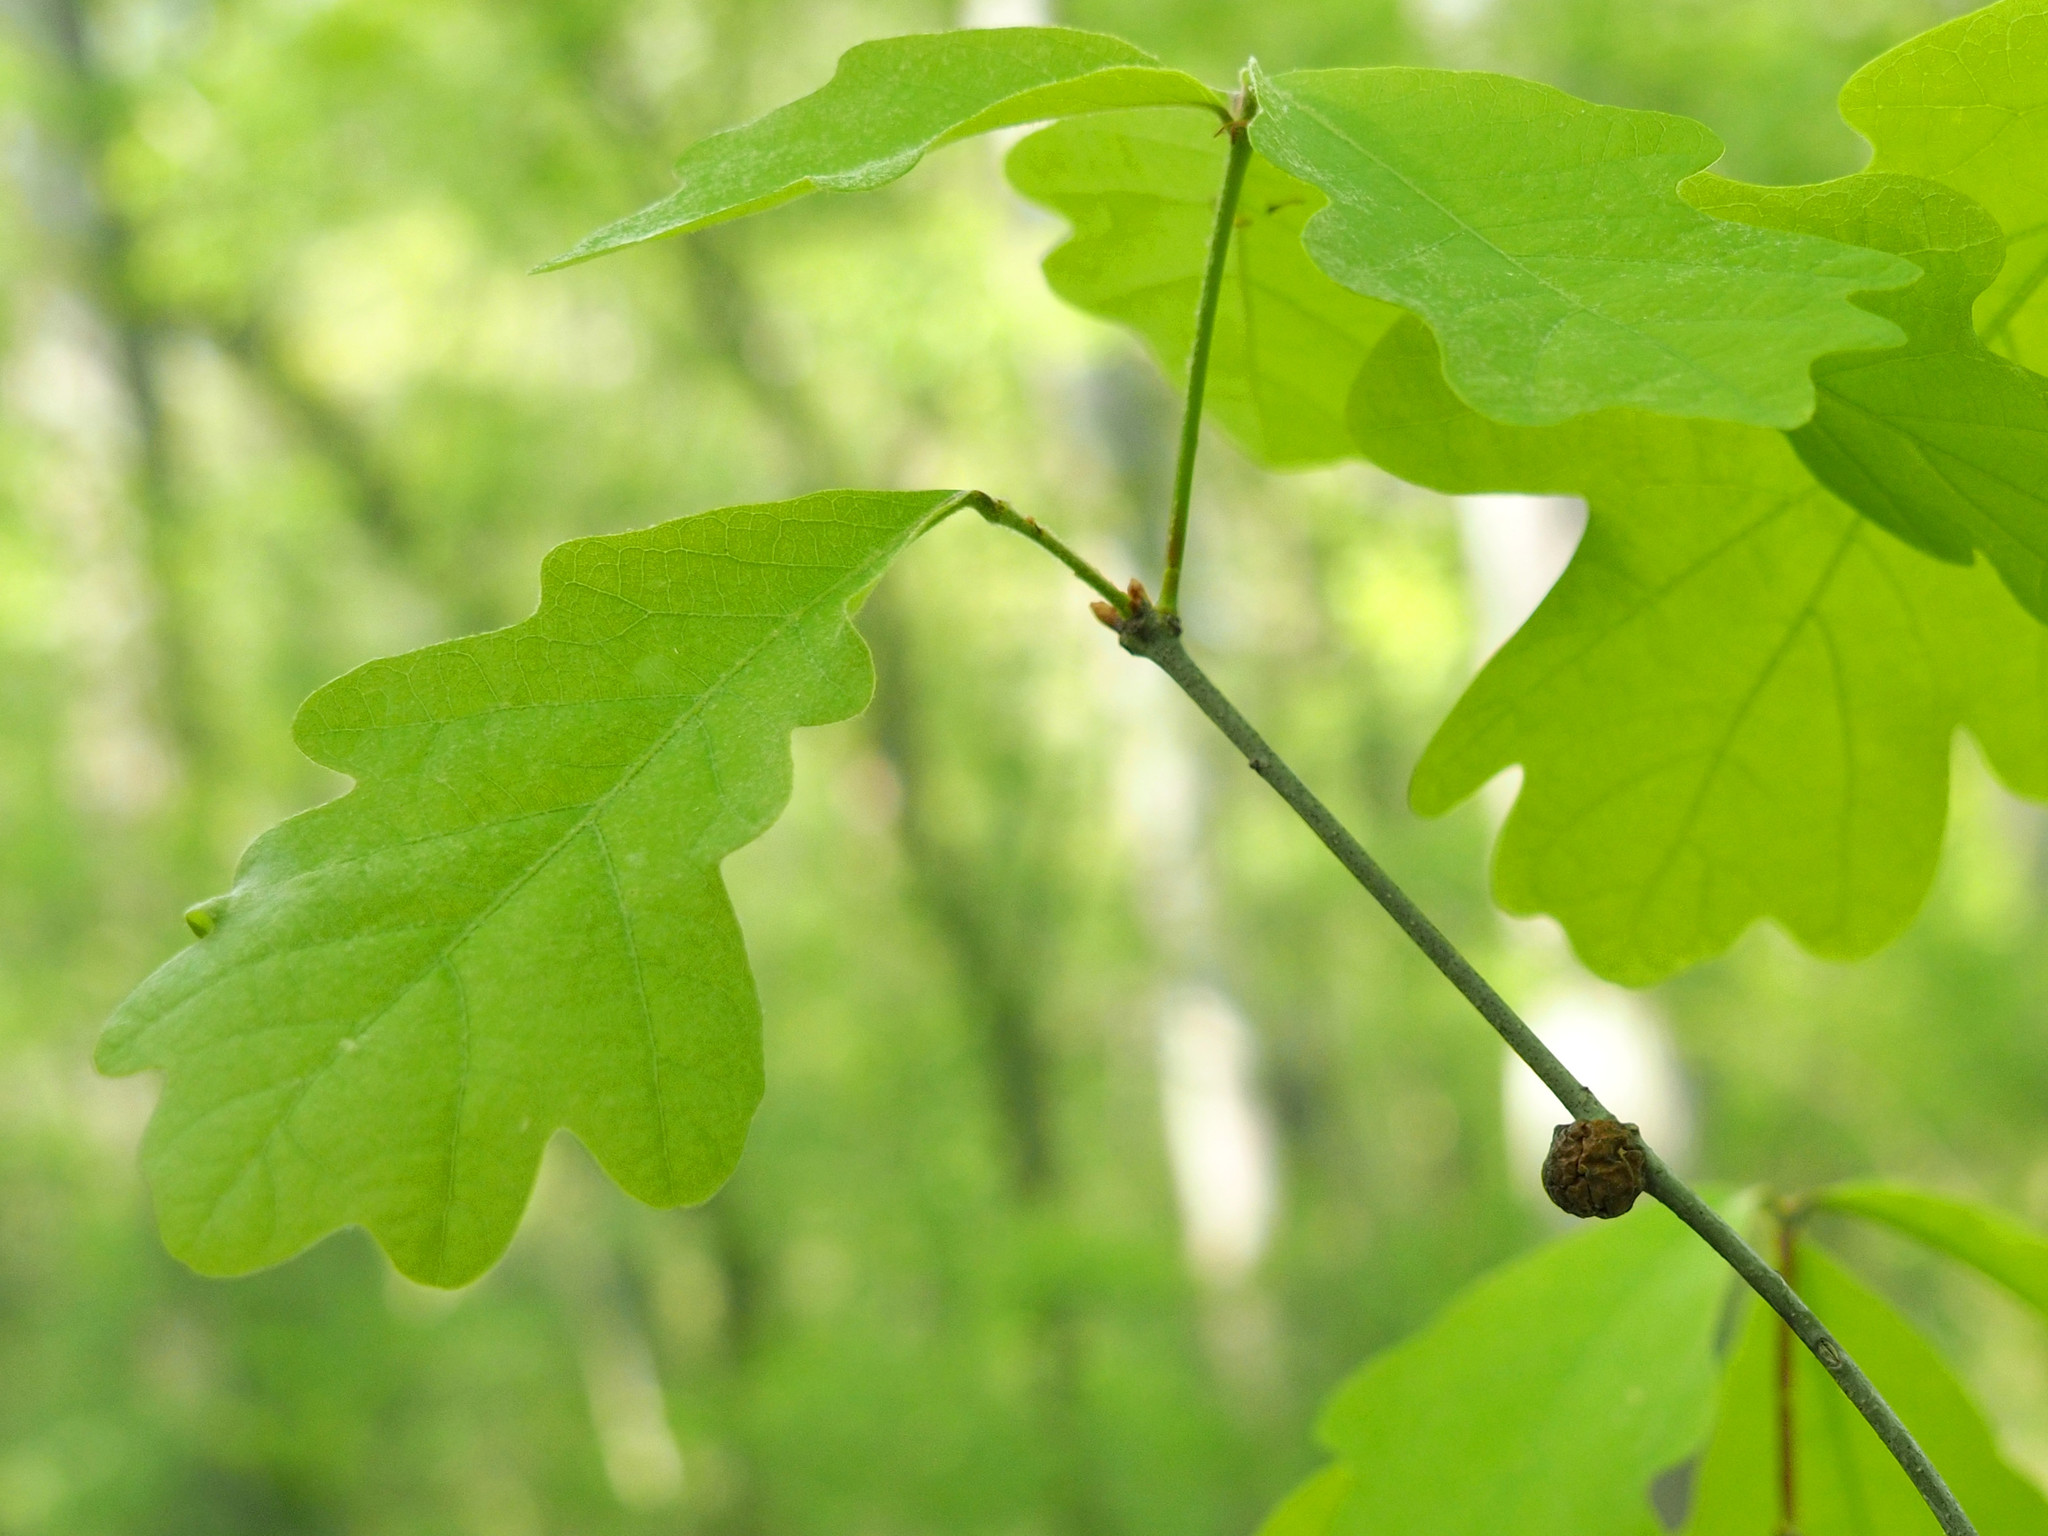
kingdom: Animalia
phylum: Arthropoda
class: Insecta
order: Hymenoptera
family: Cynipidae
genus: Disholcaspis
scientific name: Disholcaspis quercusglobulus
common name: Round bullet gall wasp
